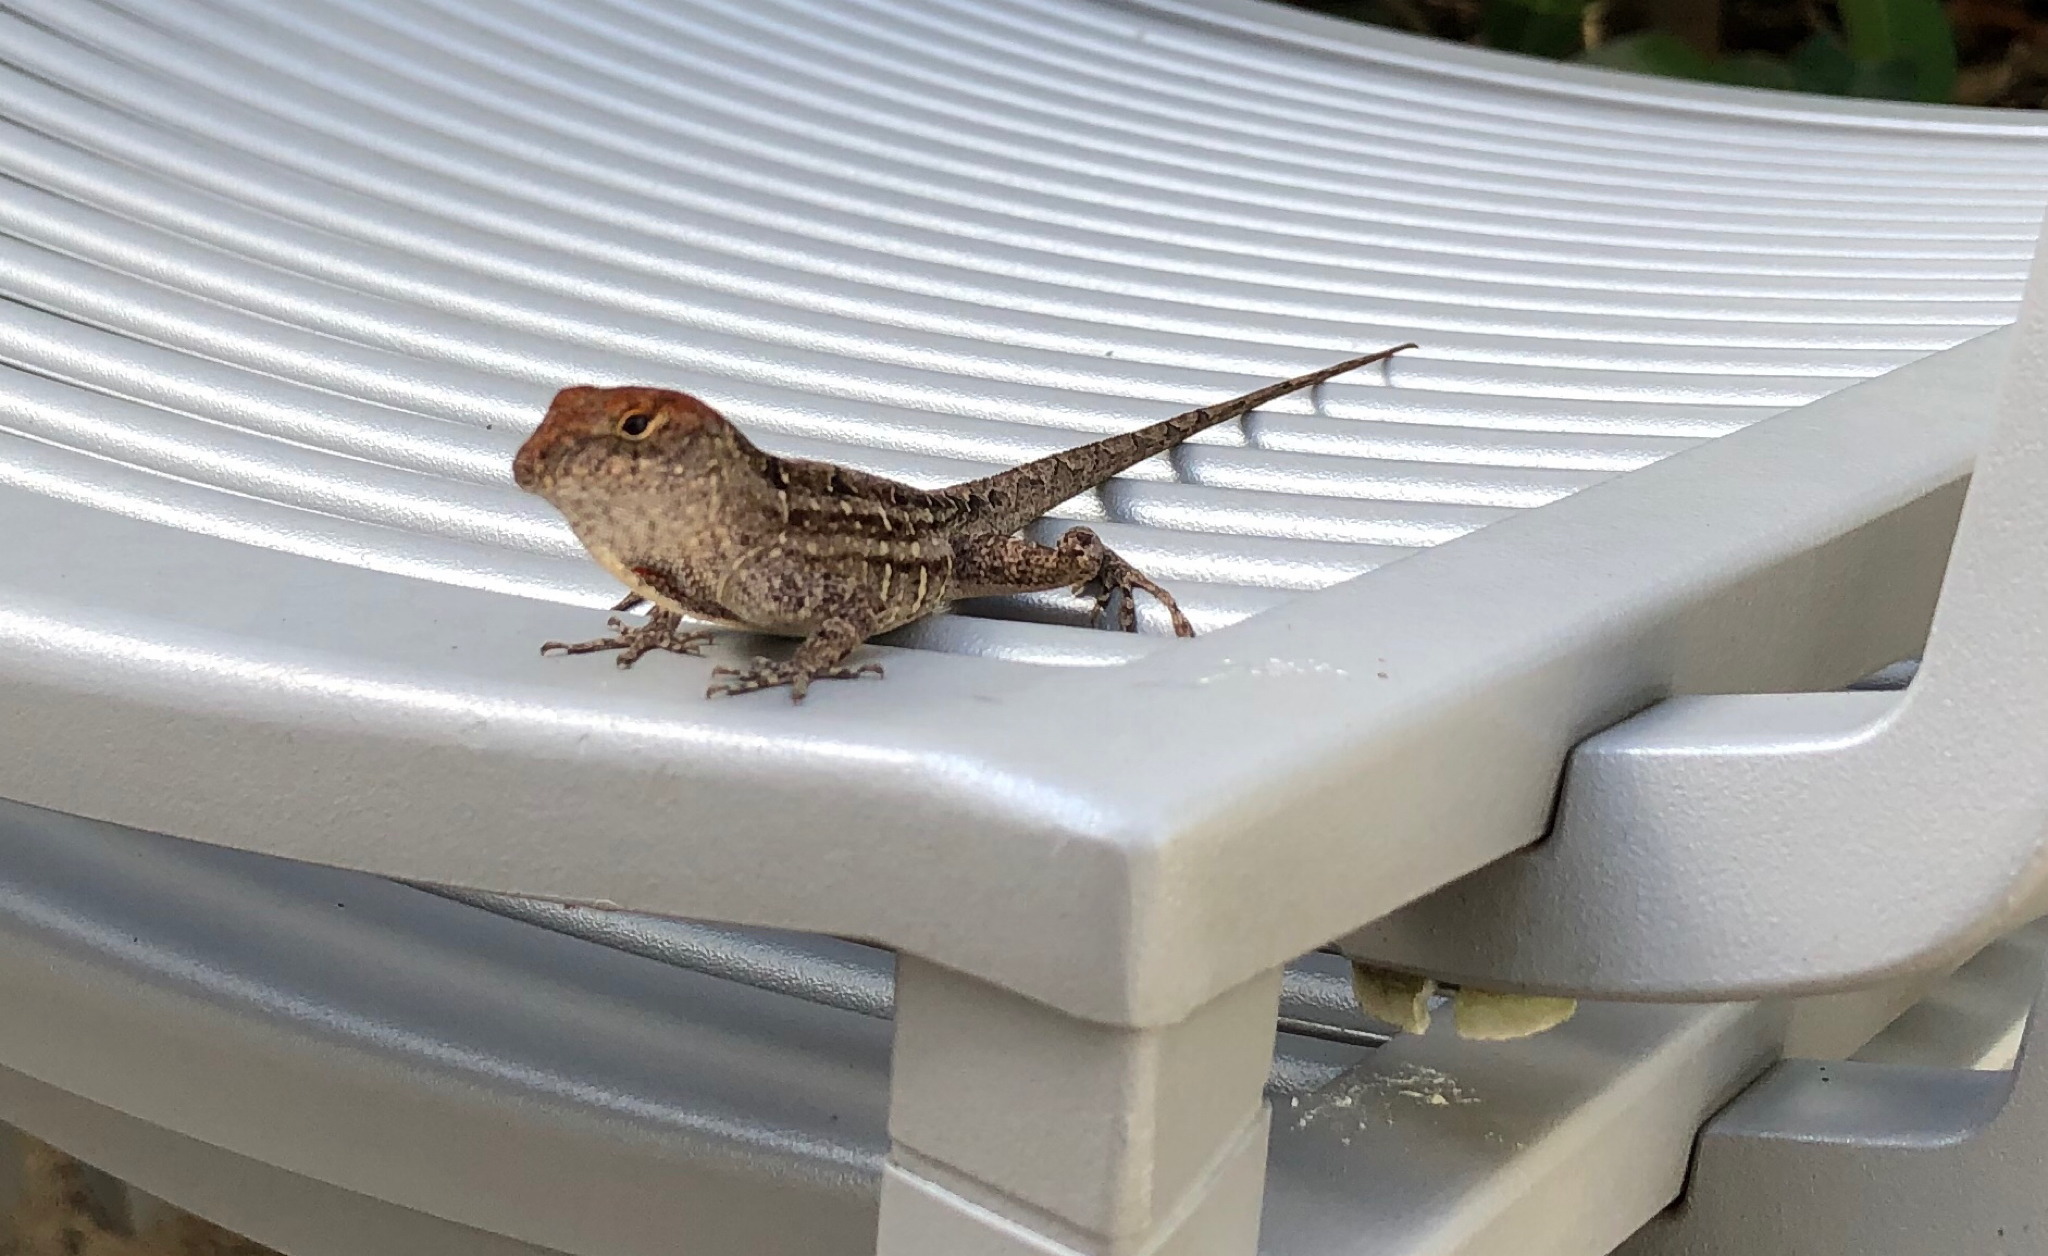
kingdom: Animalia
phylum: Chordata
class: Squamata
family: Dactyloidae
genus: Anolis
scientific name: Anolis sagrei
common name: Brown anole
